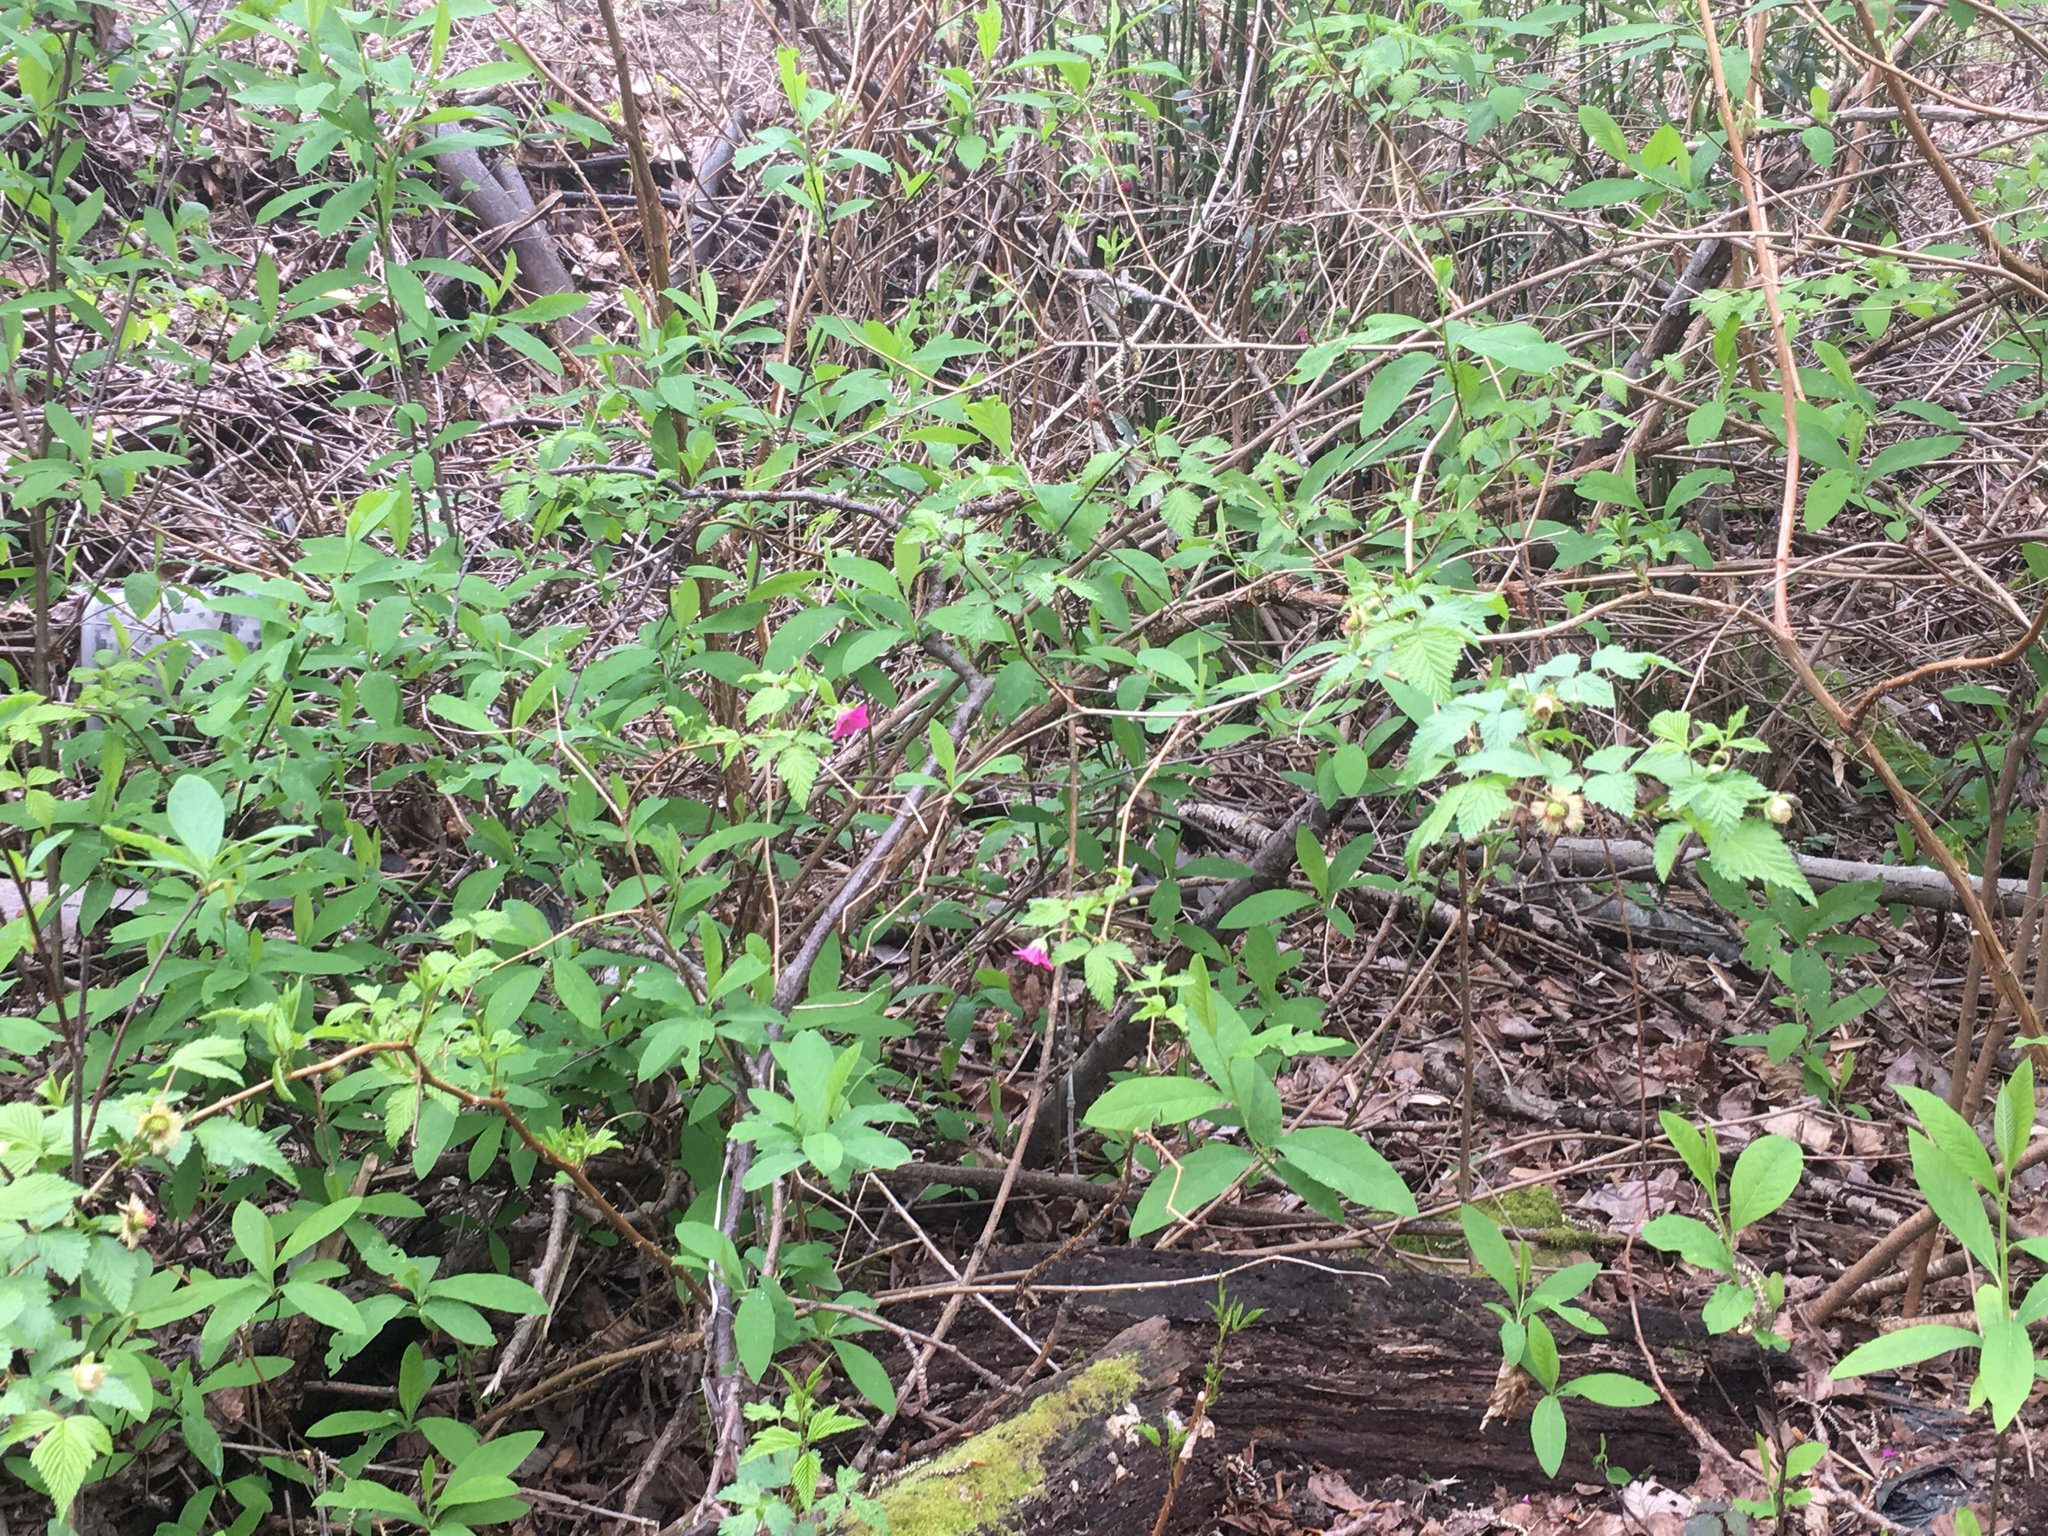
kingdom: Plantae
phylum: Tracheophyta
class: Magnoliopsida
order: Rosales
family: Rosaceae
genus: Rubus
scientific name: Rubus spectabilis
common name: Salmonberry
